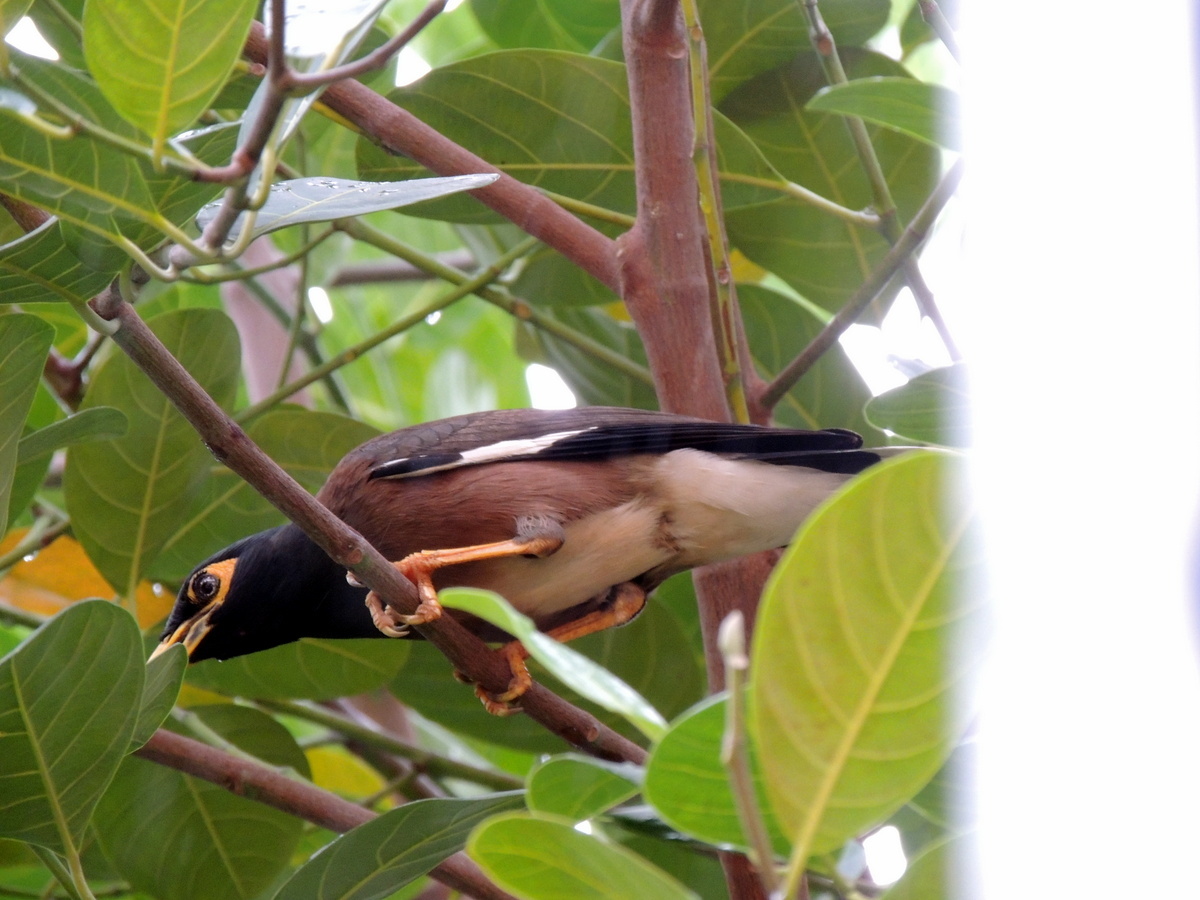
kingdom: Animalia
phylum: Chordata
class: Aves
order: Passeriformes
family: Sturnidae
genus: Acridotheres
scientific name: Acridotheres tristis
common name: Common myna
